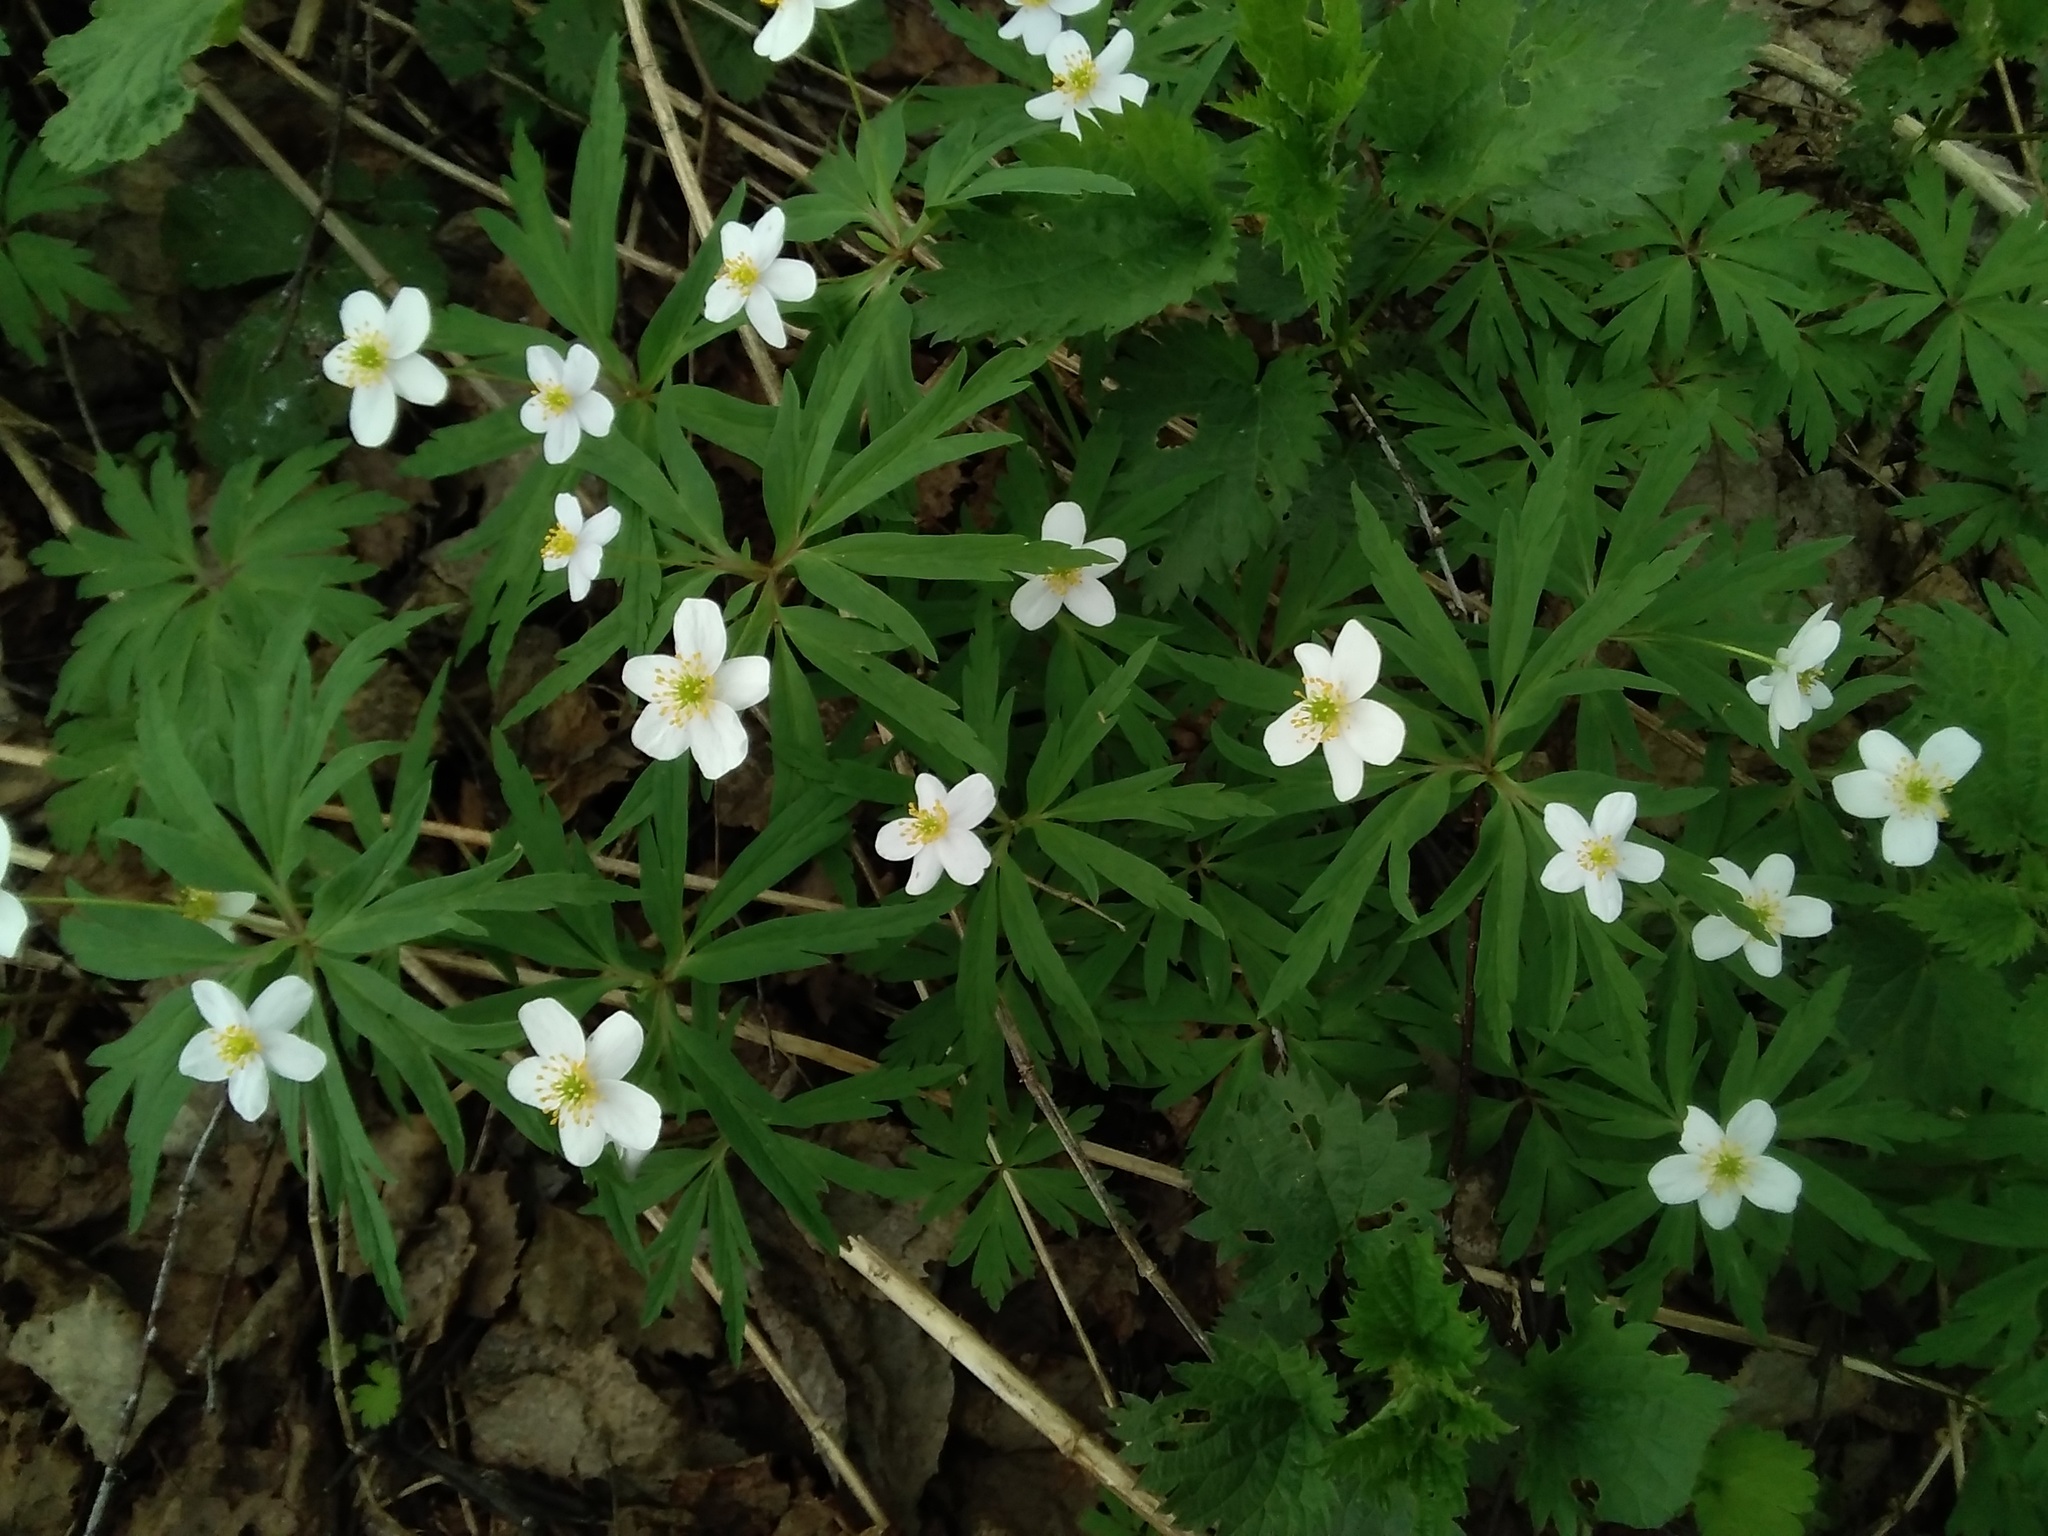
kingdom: Plantae
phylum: Tracheophyta
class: Magnoliopsida
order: Ranunculales
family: Ranunculaceae
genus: Anemone
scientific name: Anemone caerulea
